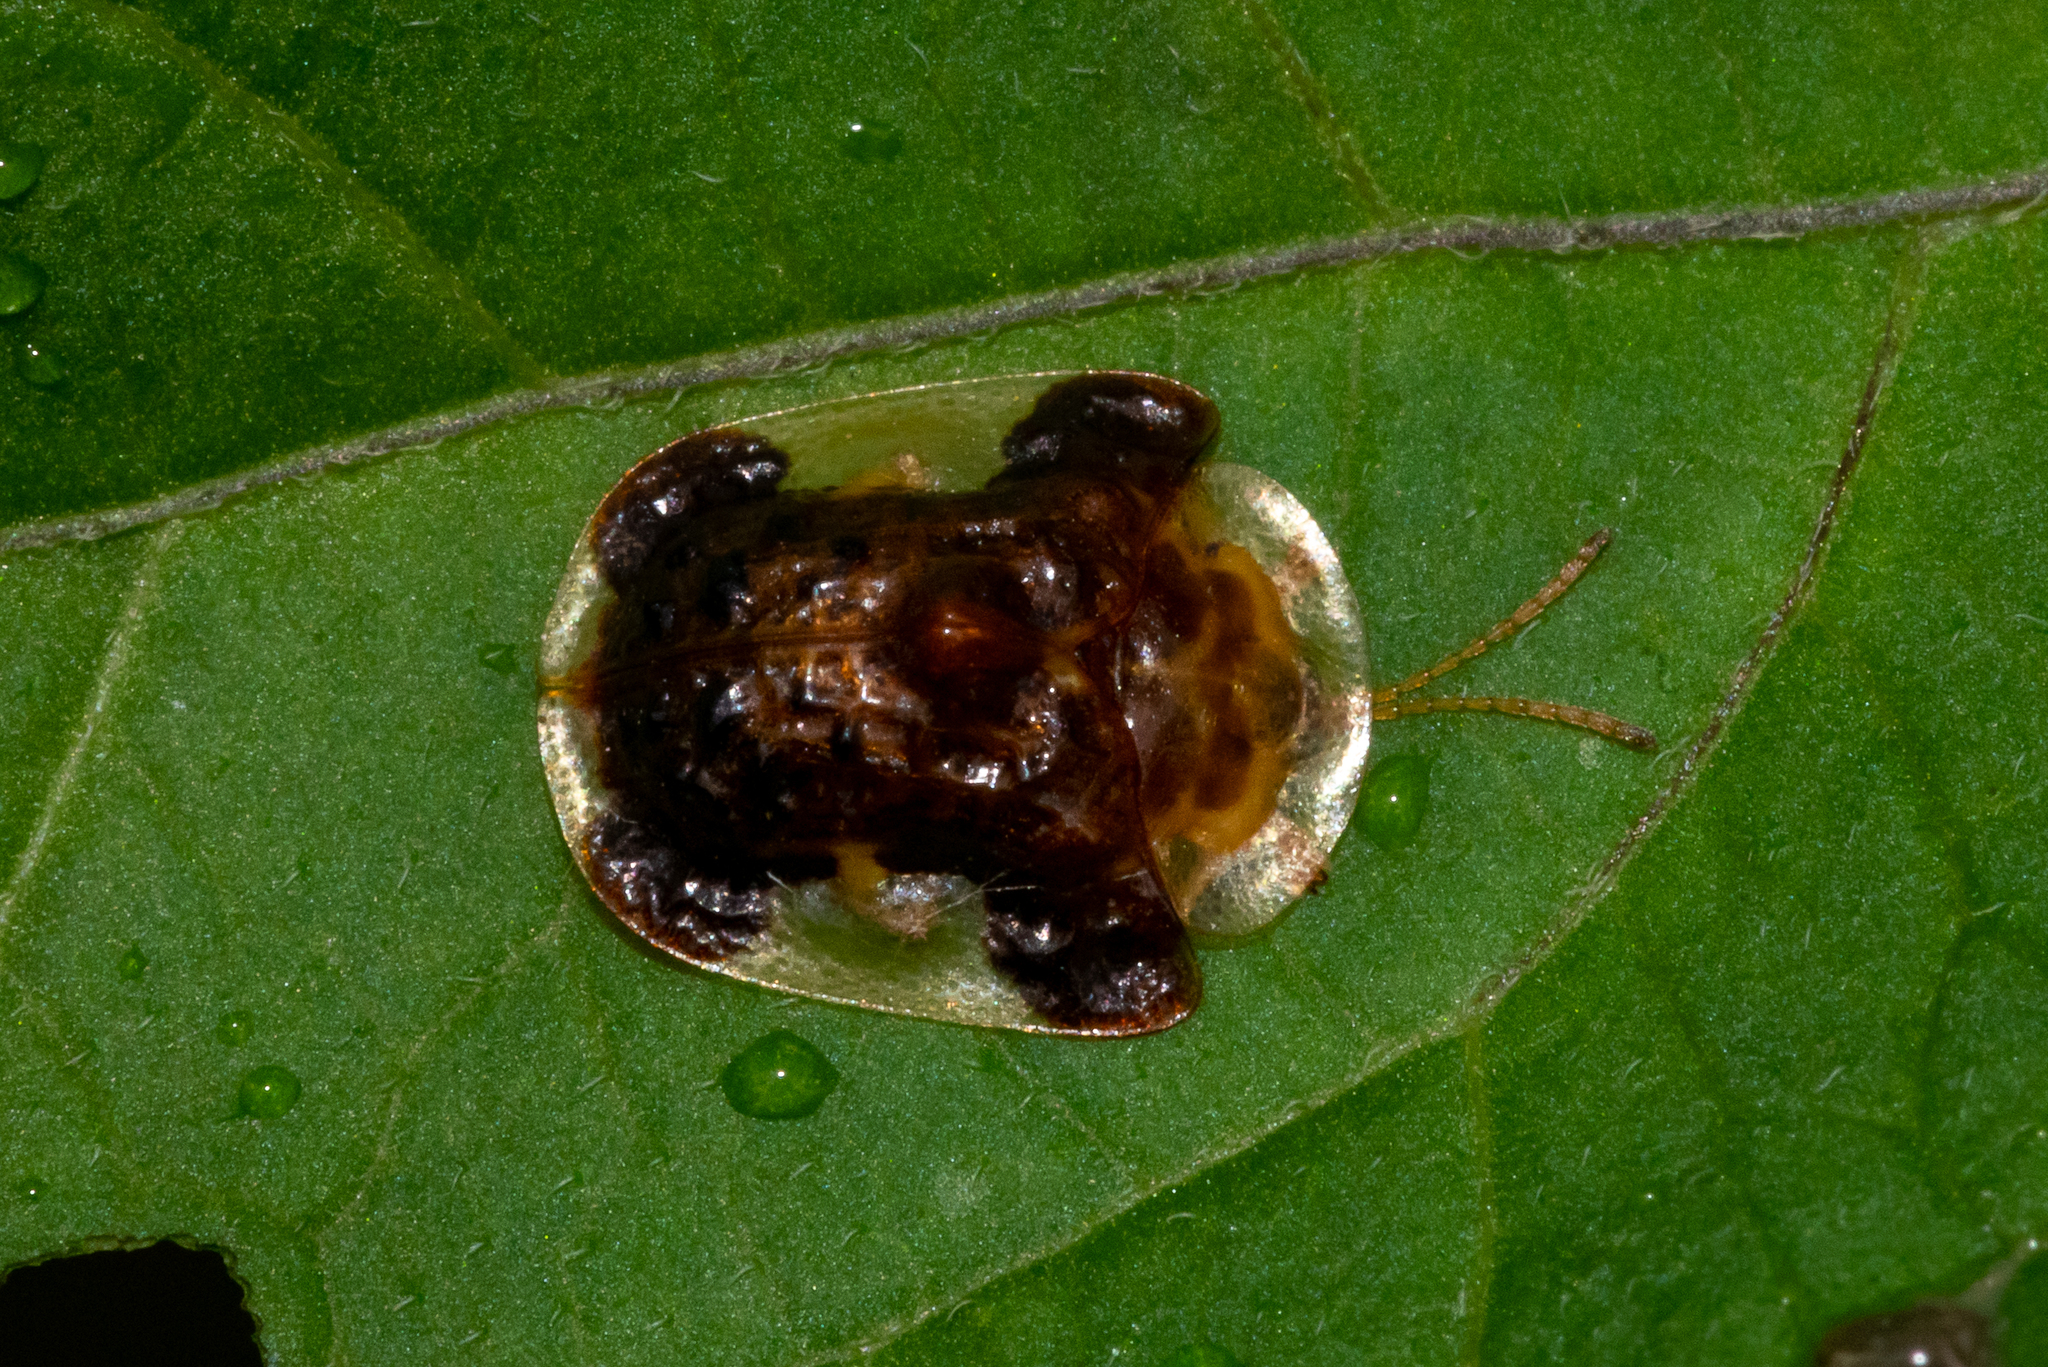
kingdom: Animalia
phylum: Arthropoda
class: Insecta
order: Coleoptera
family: Chrysomelidae
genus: Helocassis
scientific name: Helocassis clavata
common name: Clavate tortoise beetle
